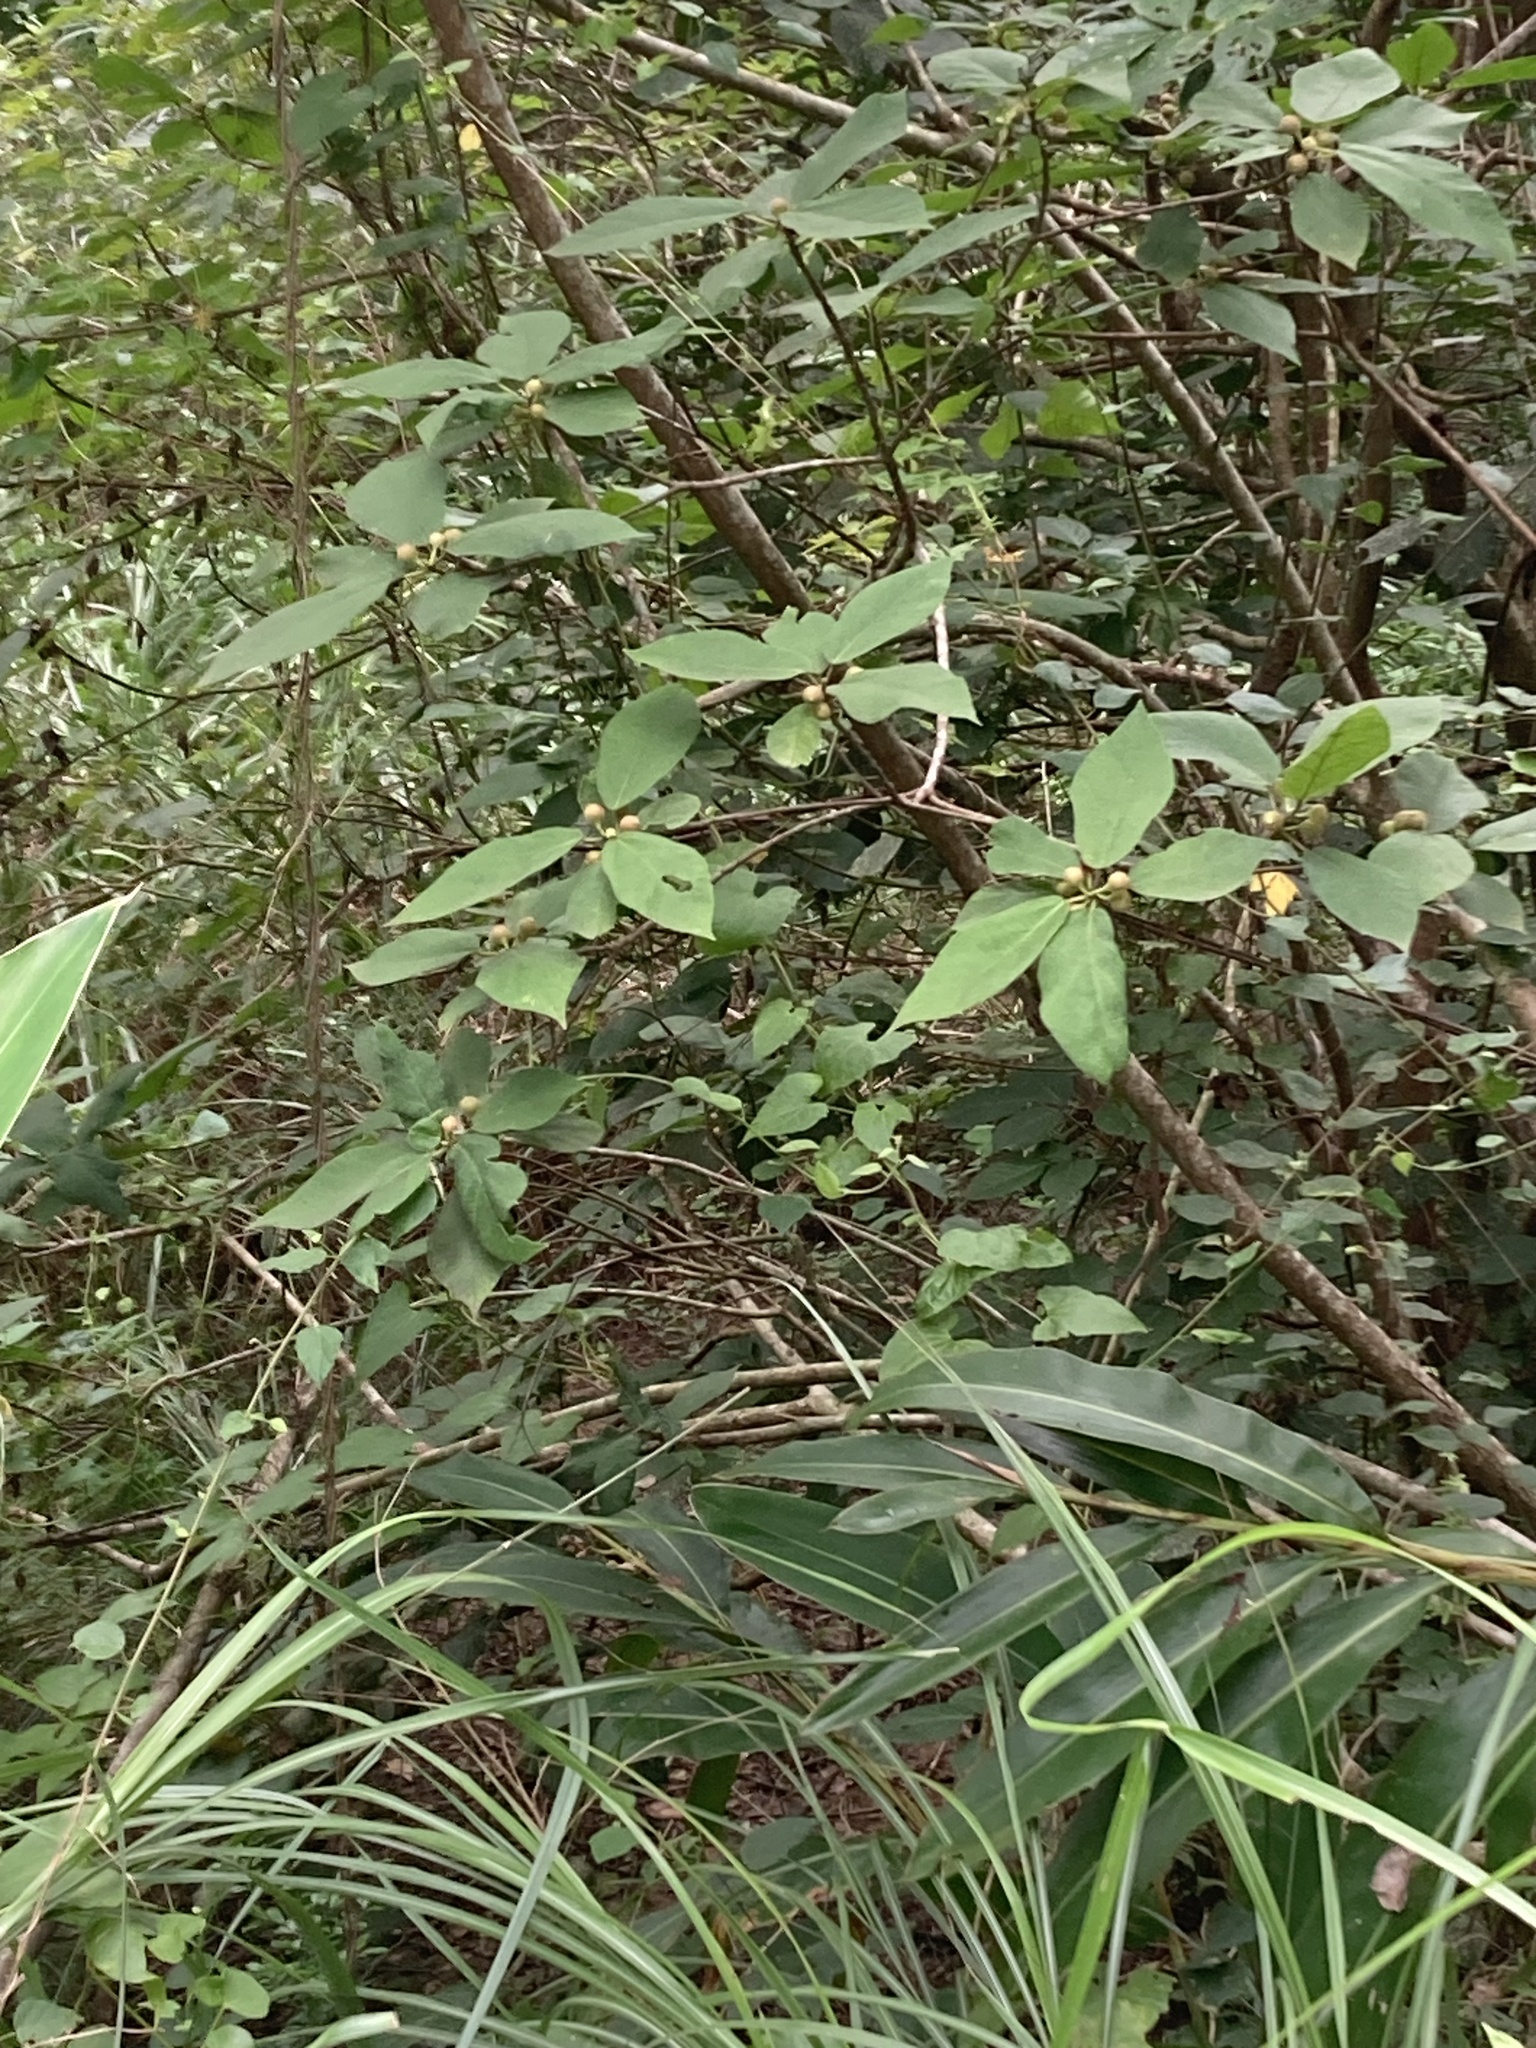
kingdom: Plantae
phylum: Tracheophyta
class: Magnoliopsida
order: Rosales
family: Moraceae
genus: Ficus
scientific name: Ficus erecta
